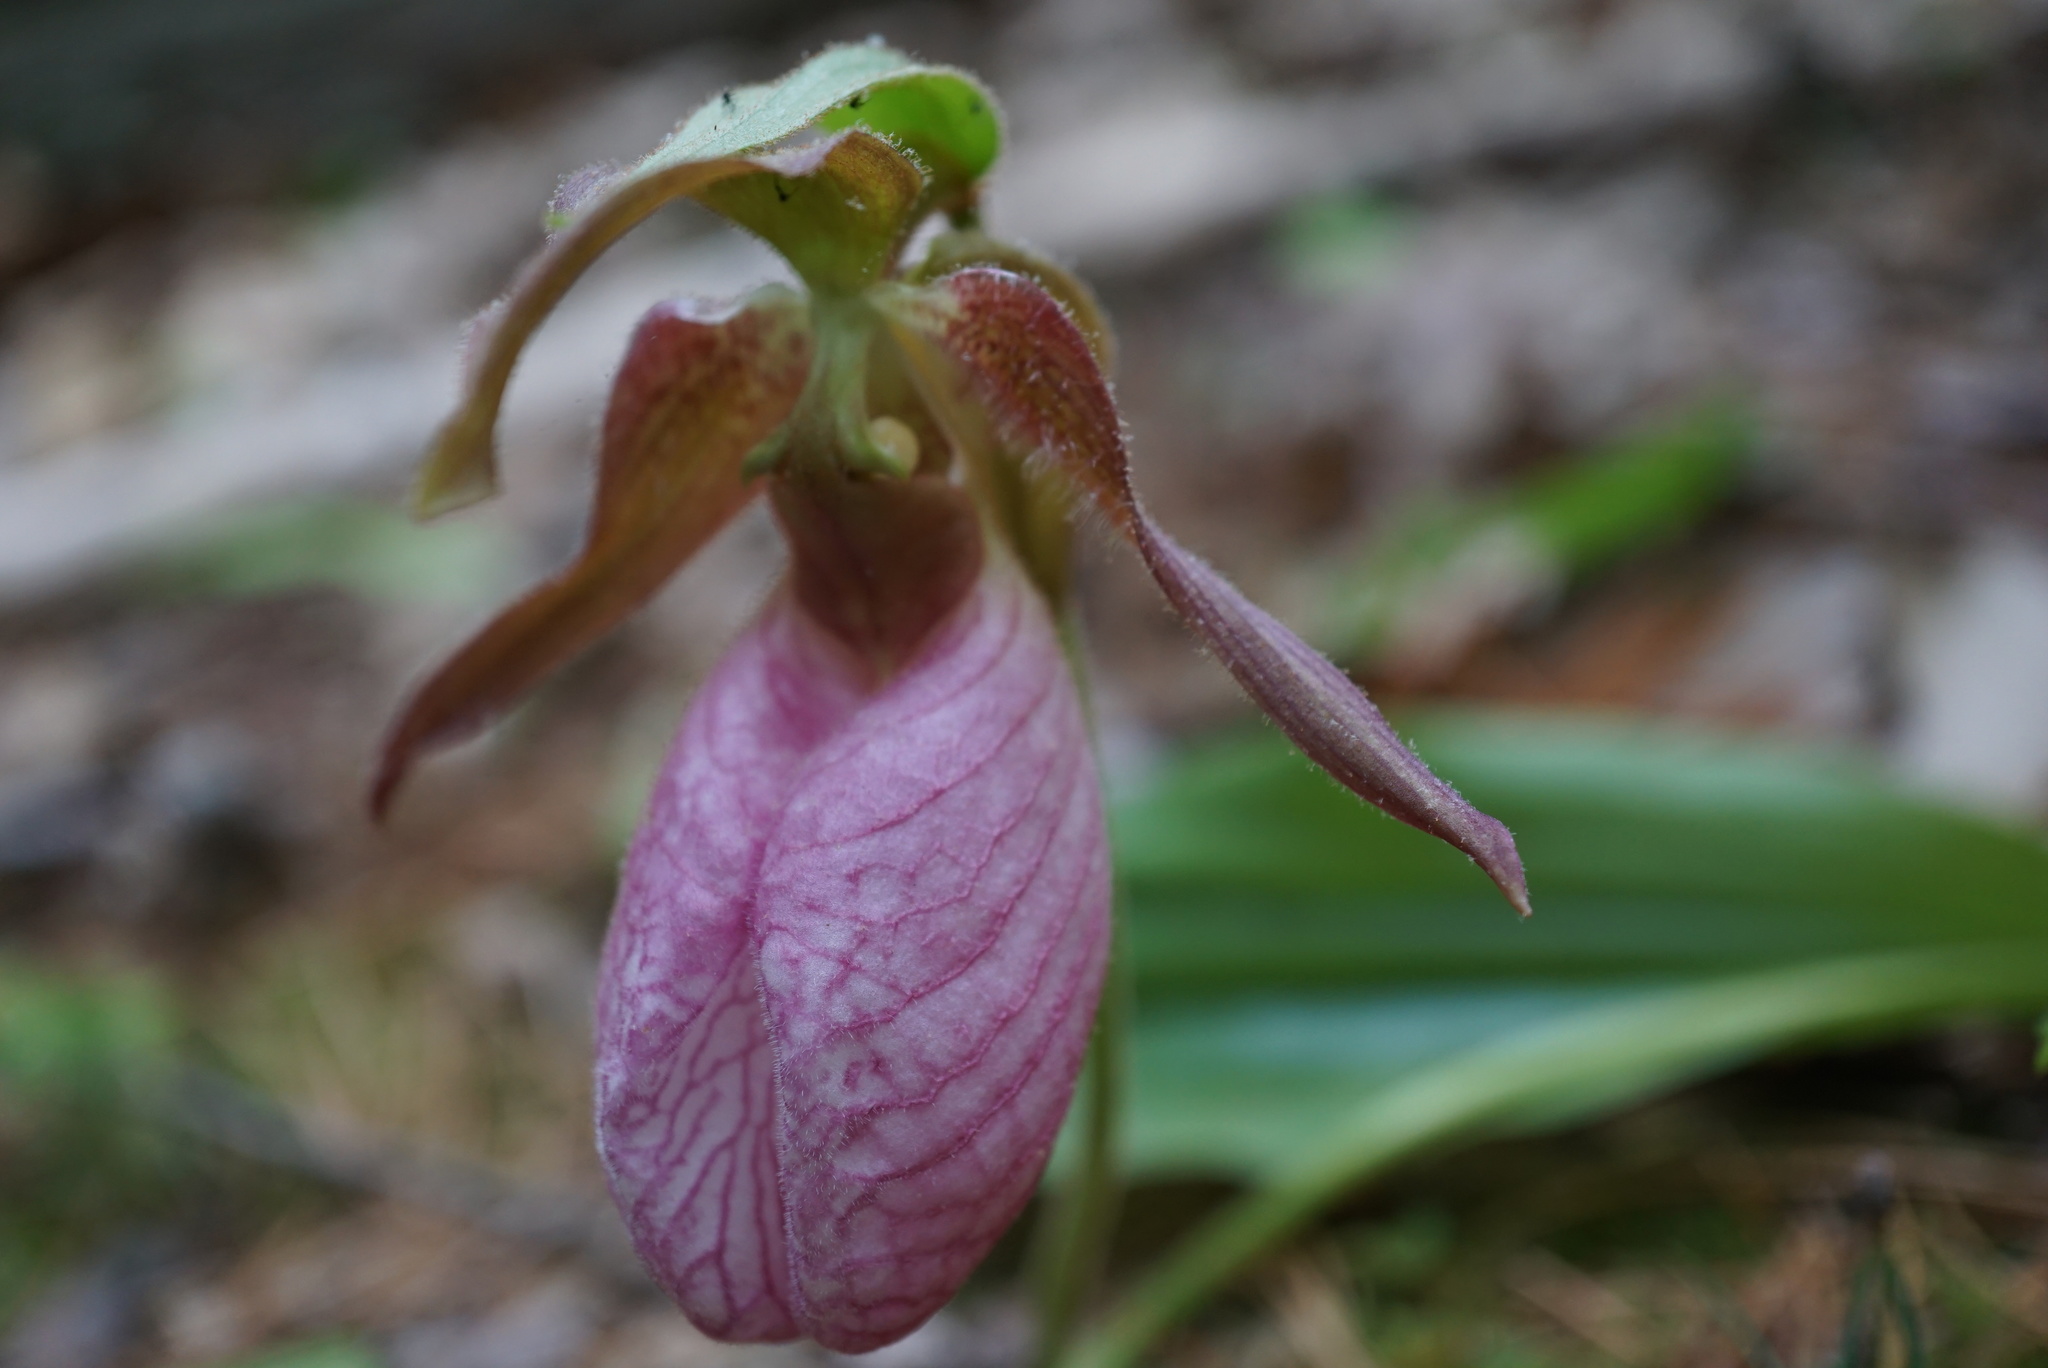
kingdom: Plantae
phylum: Tracheophyta
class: Liliopsida
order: Asparagales
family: Orchidaceae
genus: Cypripedium
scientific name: Cypripedium acaule
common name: Pink lady's-slipper
